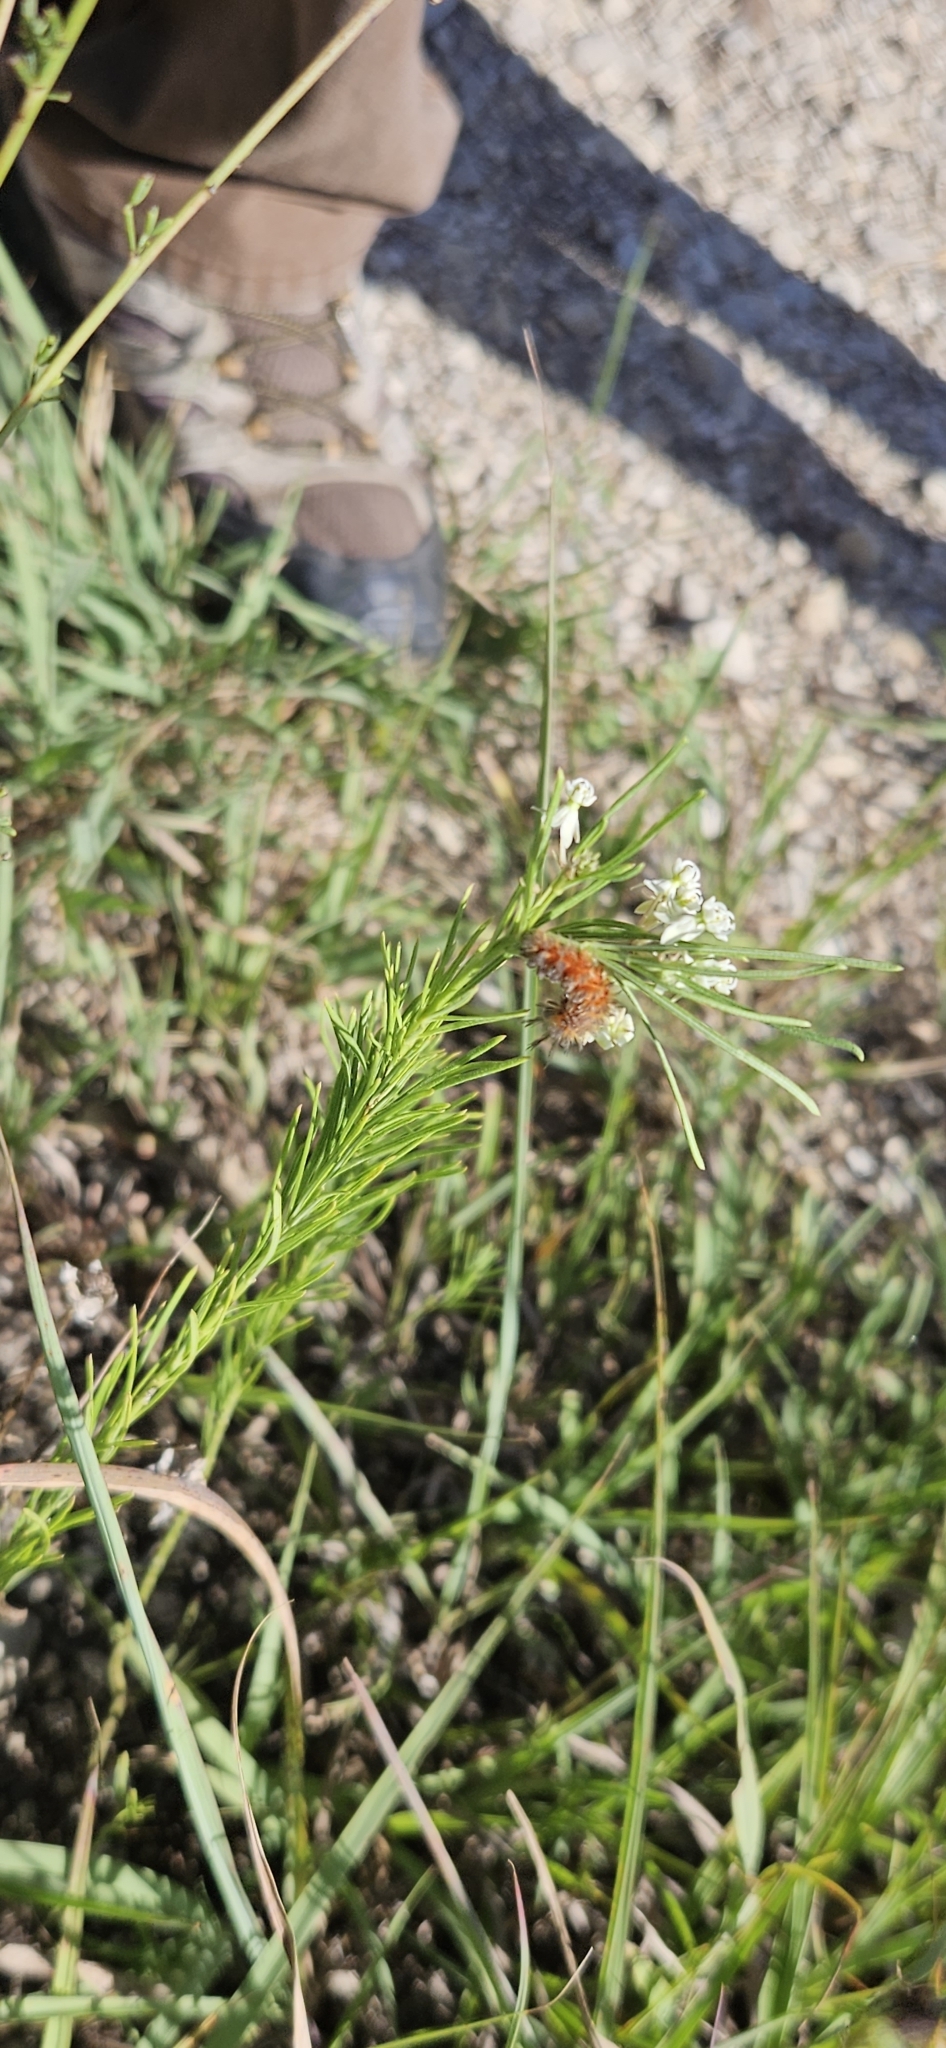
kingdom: Animalia
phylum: Arthropoda
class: Insecta
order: Lepidoptera
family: Erebidae
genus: Cycnia
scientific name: Cycnia collaris
